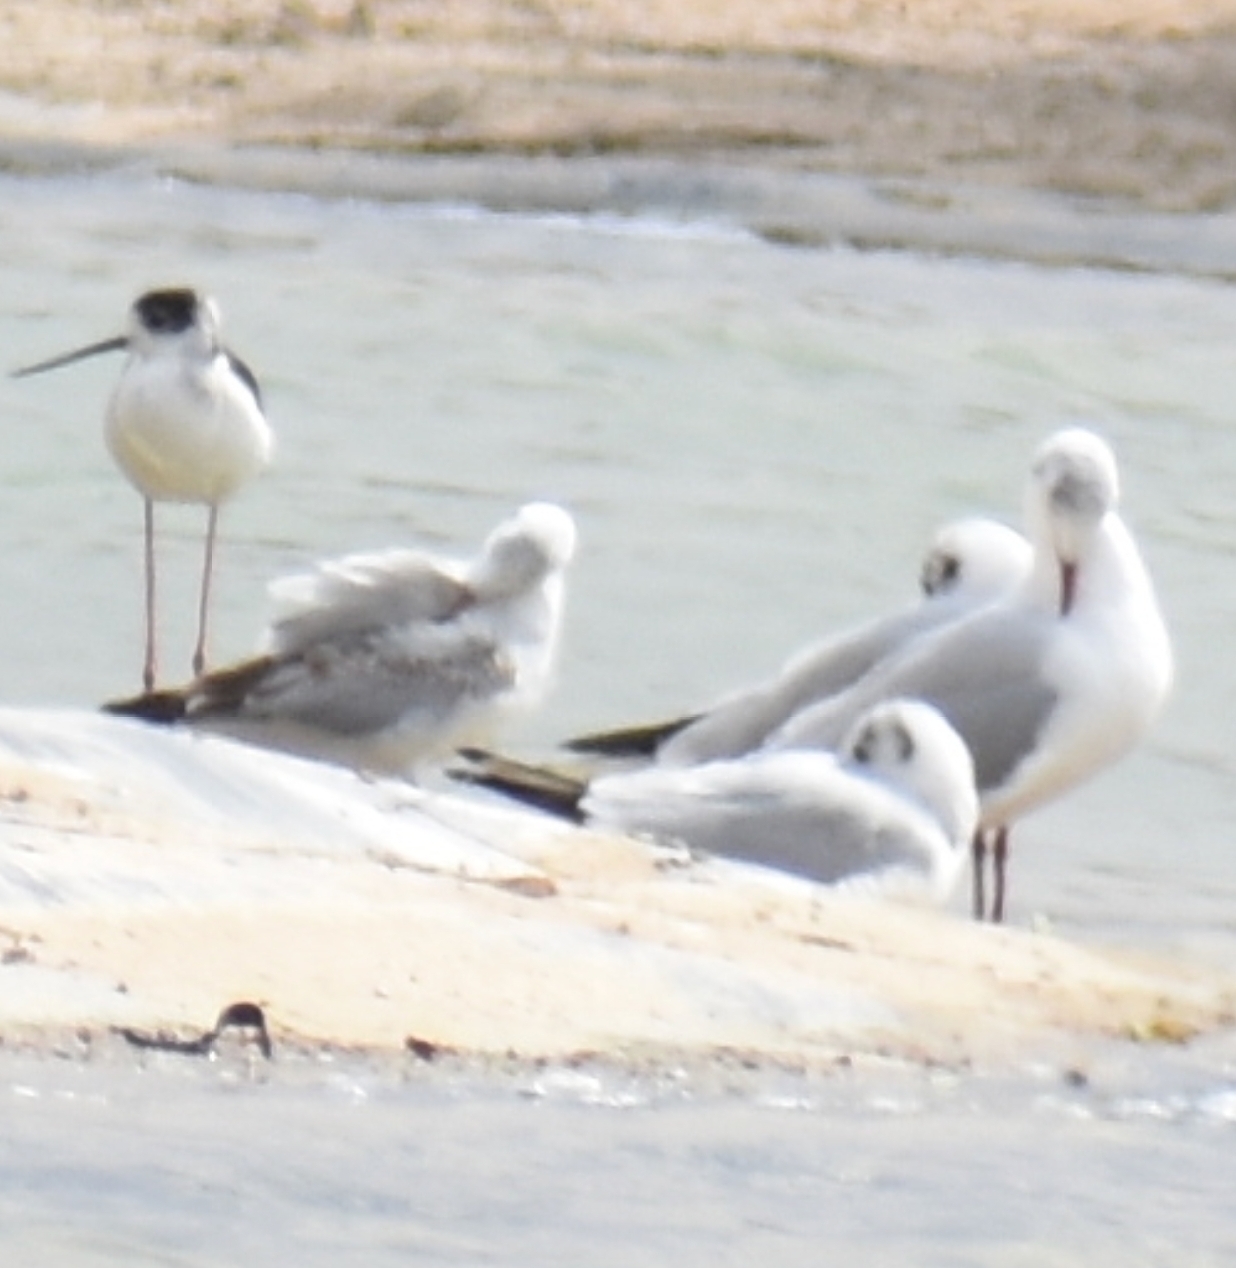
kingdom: Animalia
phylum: Chordata
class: Aves
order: Charadriiformes
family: Laridae
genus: Chroicocephalus
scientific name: Chroicocephalus ridibundus
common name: Black-headed gull
